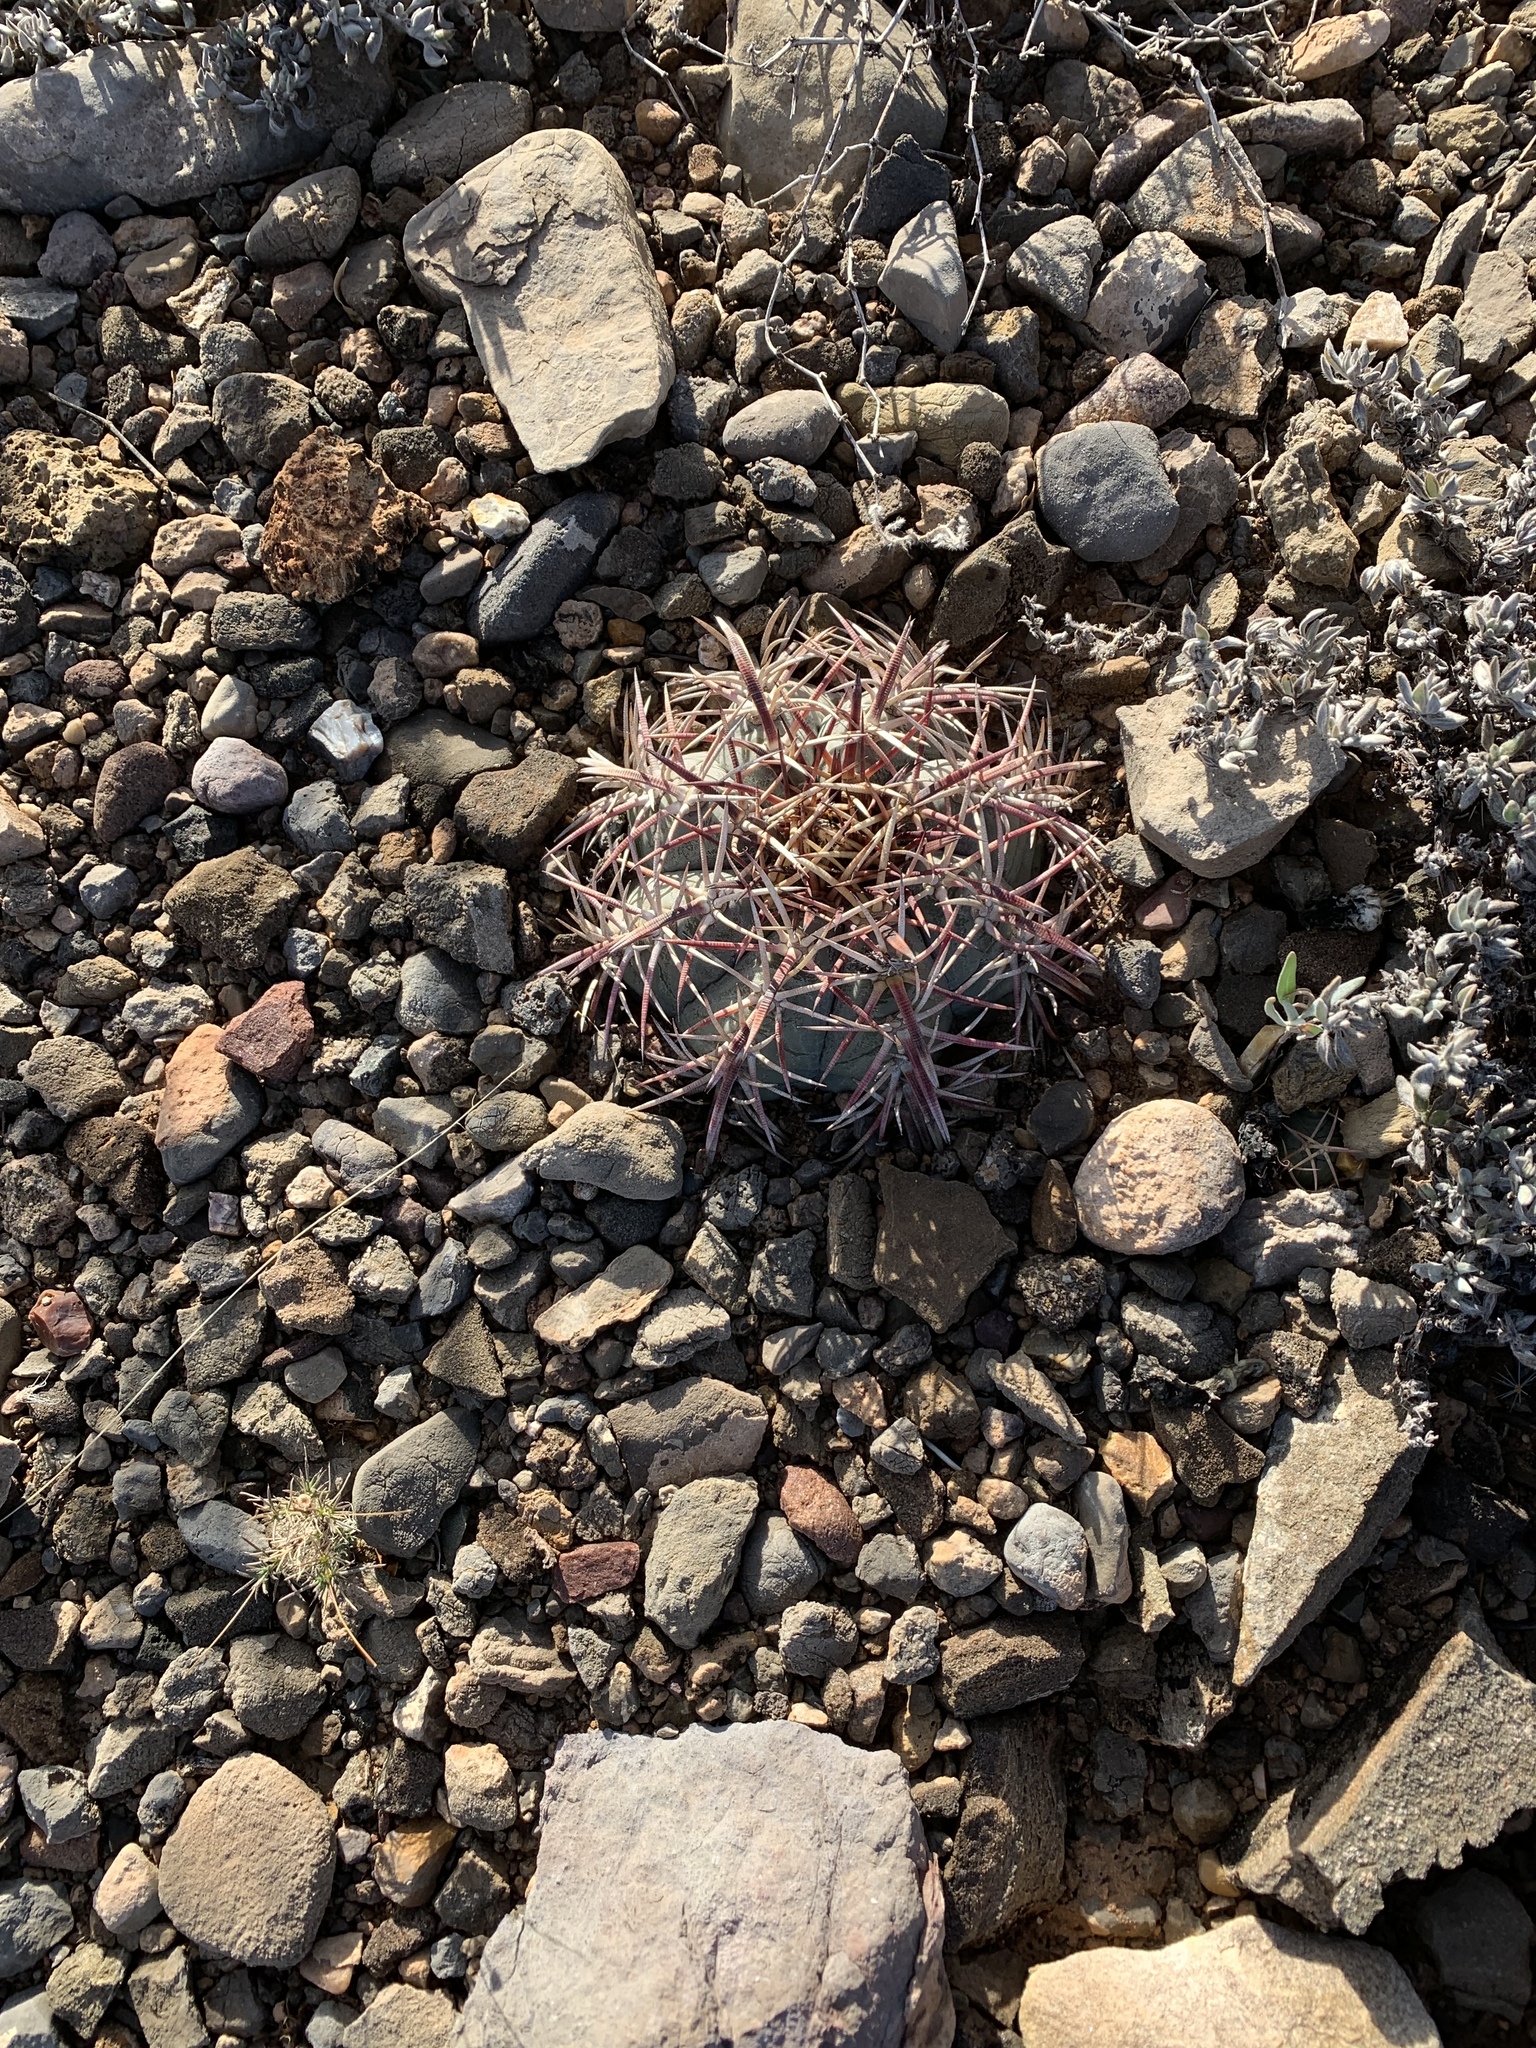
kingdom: Plantae
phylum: Tracheophyta
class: Magnoliopsida
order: Caryophyllales
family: Cactaceae
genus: Echinocactus
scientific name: Echinocactus horizonthalonius
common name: Devilshead
